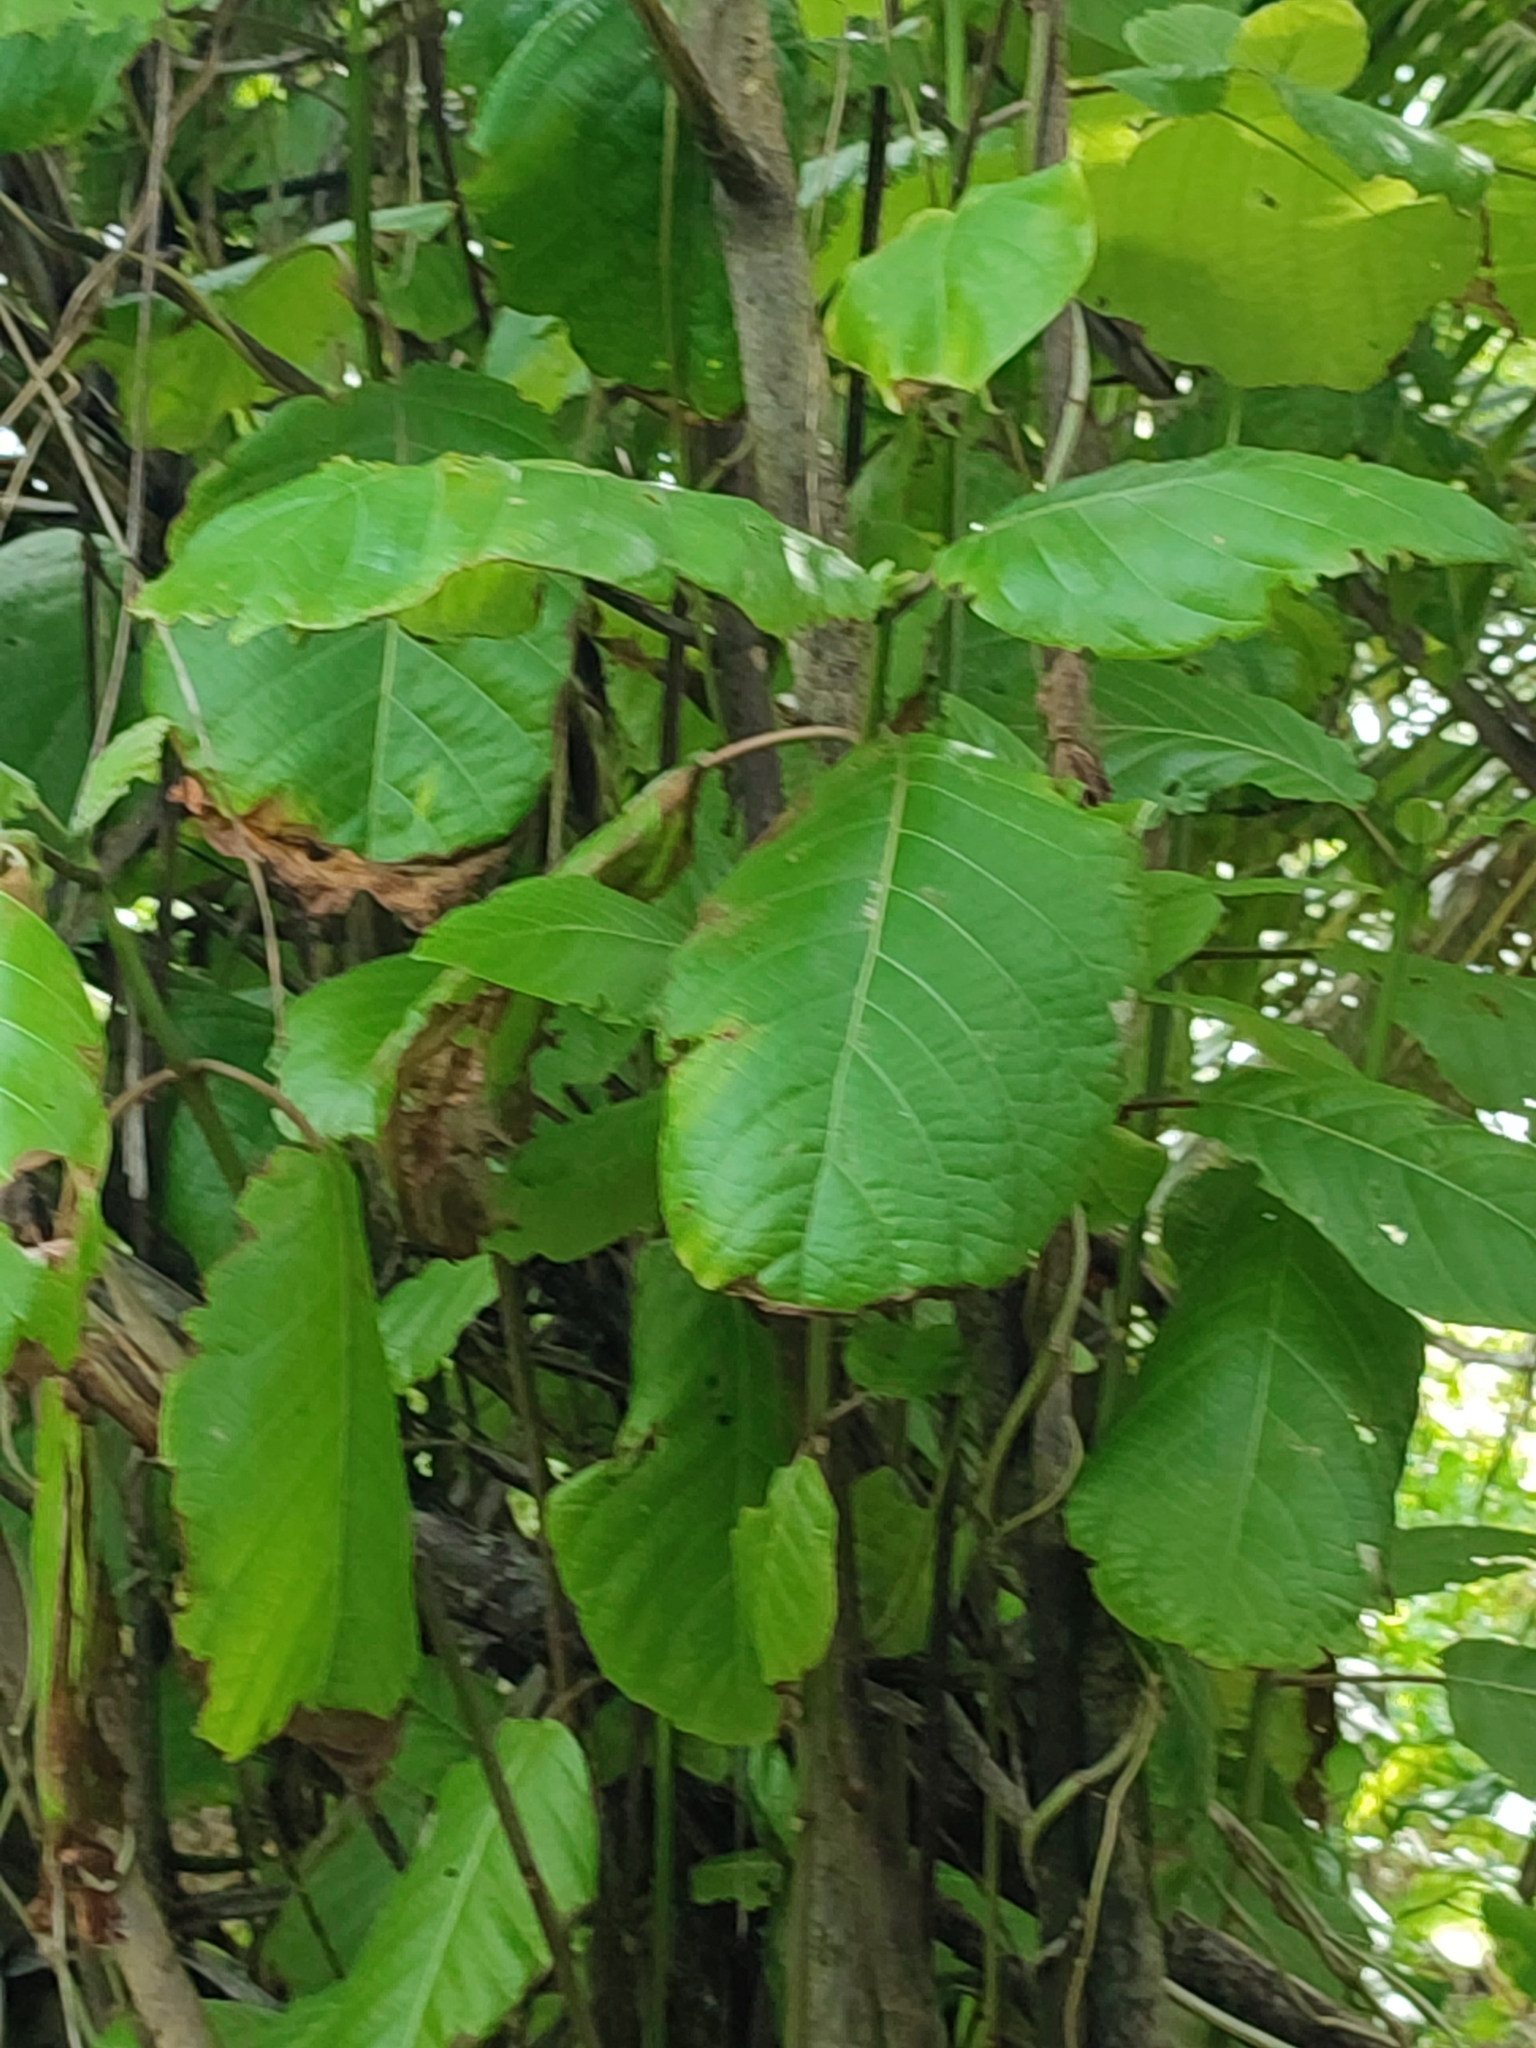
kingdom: Plantae
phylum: Tracheophyta
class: Magnoliopsida
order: Gentianales
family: Rubiaceae
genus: Guettarda
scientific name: Guettarda speciosa
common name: Sea randa
